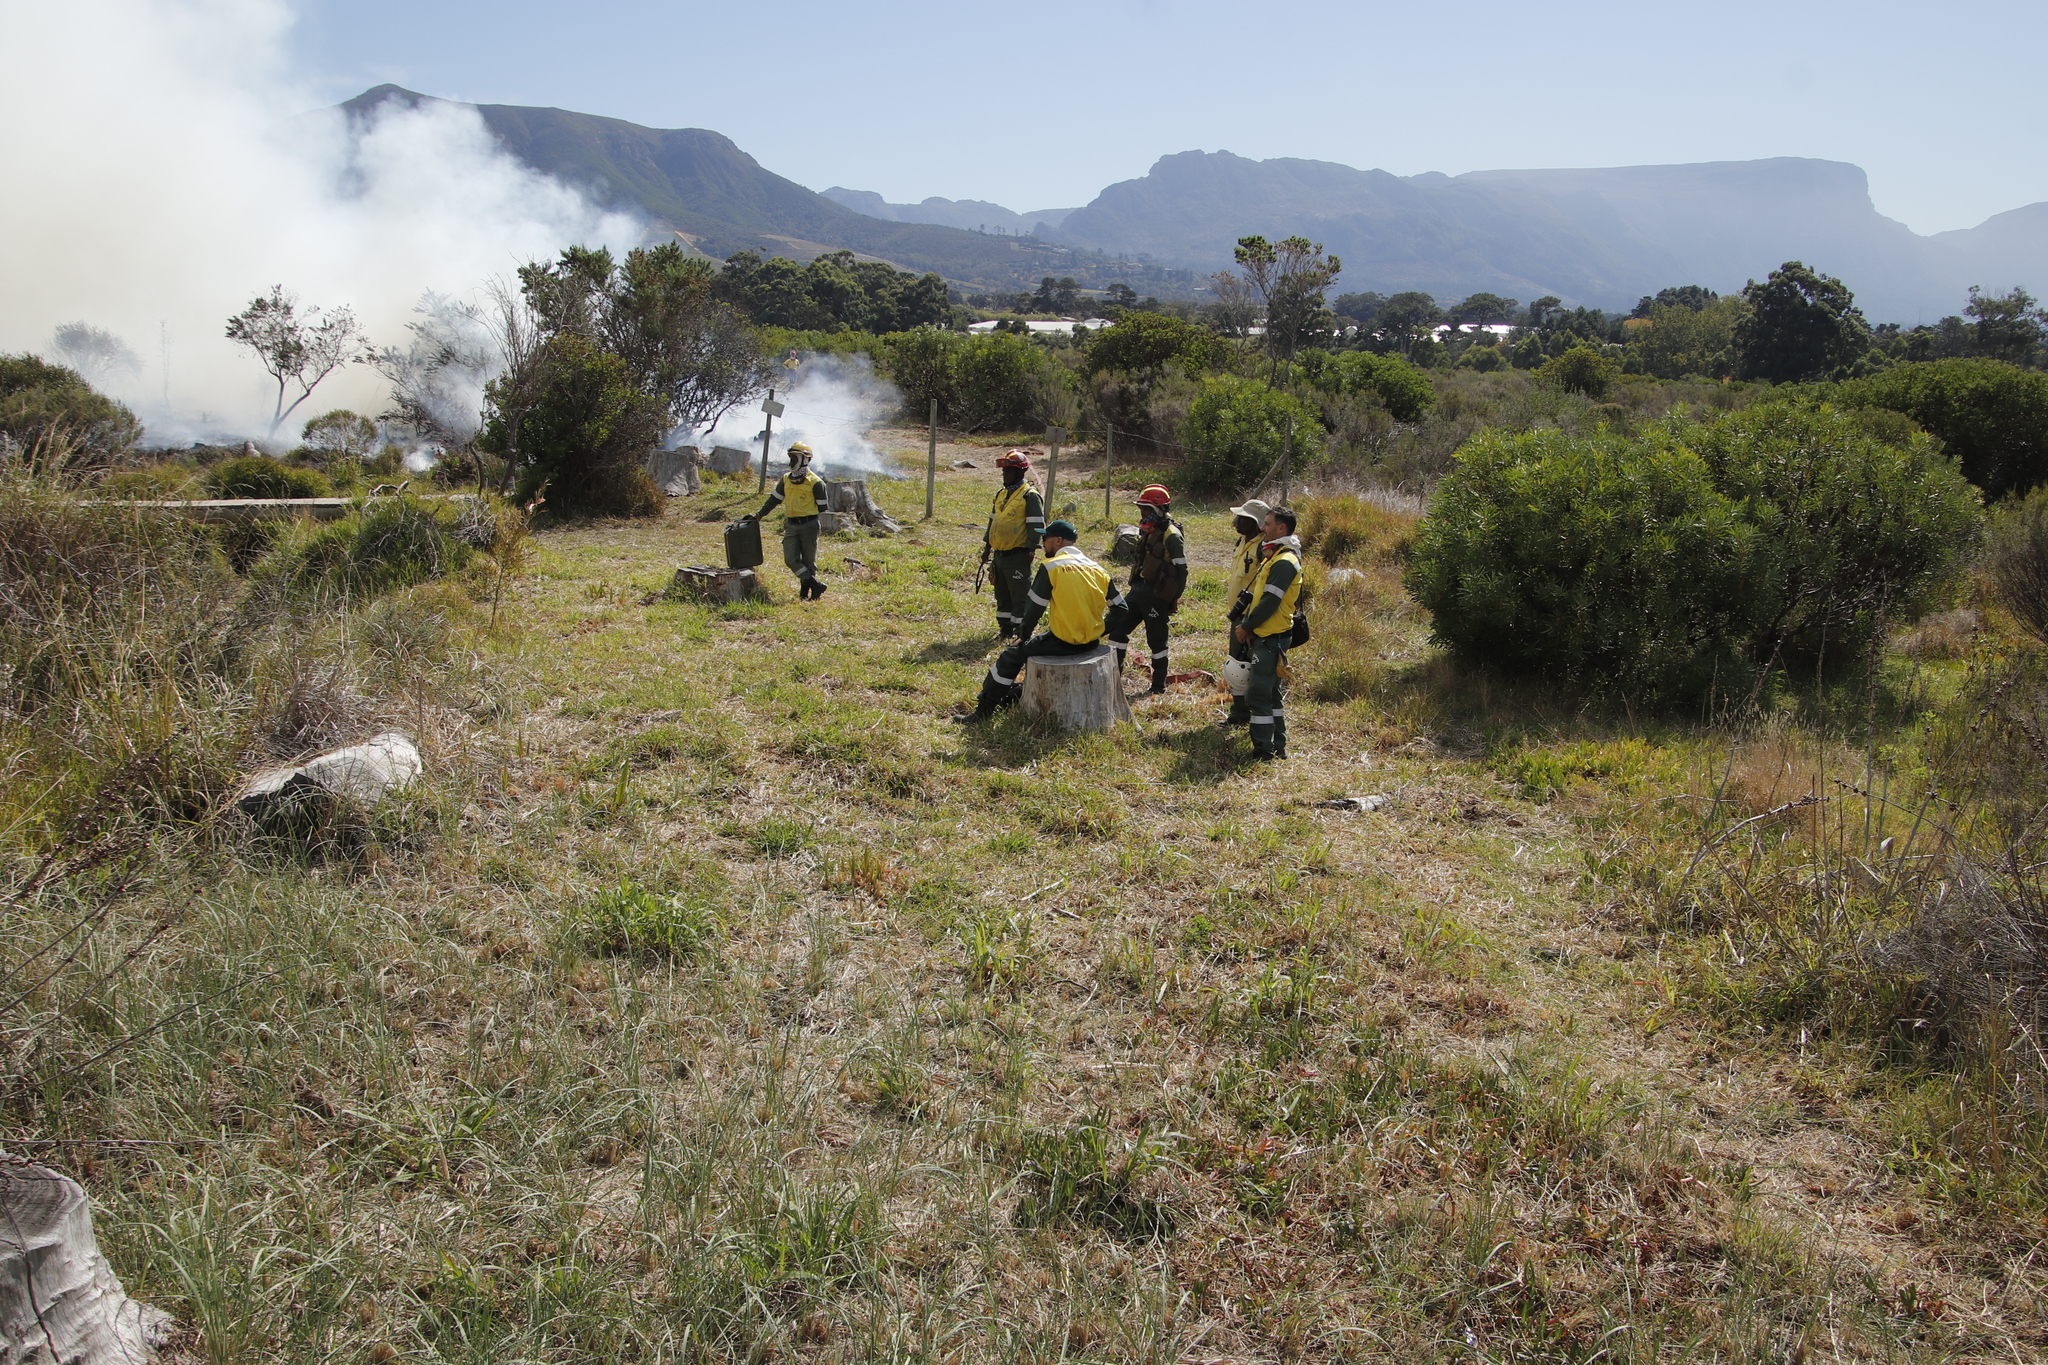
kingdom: Plantae
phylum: Tracheophyta
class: Liliopsida
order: Asparagales
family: Iridaceae
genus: Watsonia
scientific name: Watsonia meriana
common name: Bulbil bugle-lily
